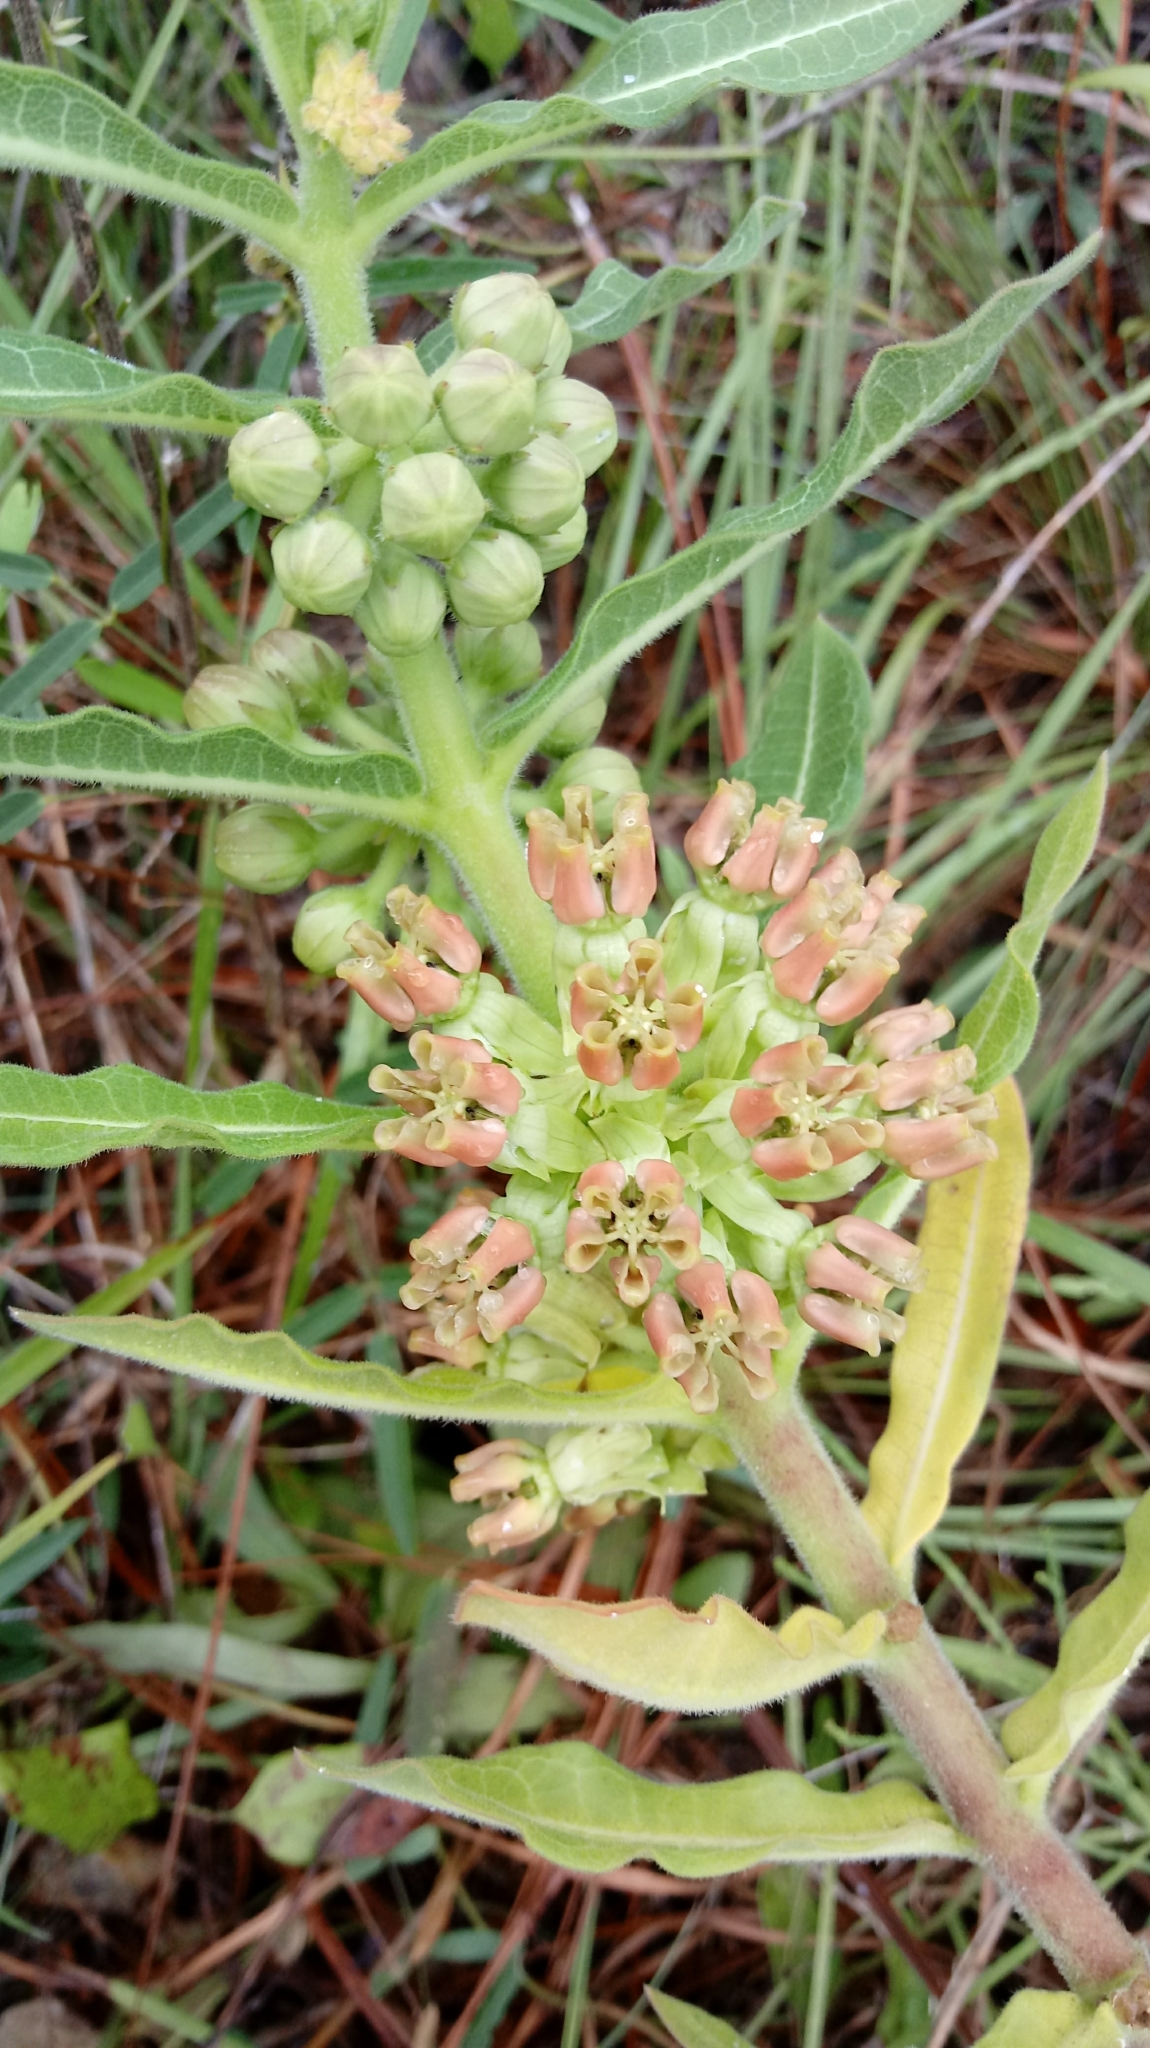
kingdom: Plantae
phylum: Tracheophyta
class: Magnoliopsida
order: Gentianales
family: Apocynaceae
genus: Asclepias
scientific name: Asclepias obovata
